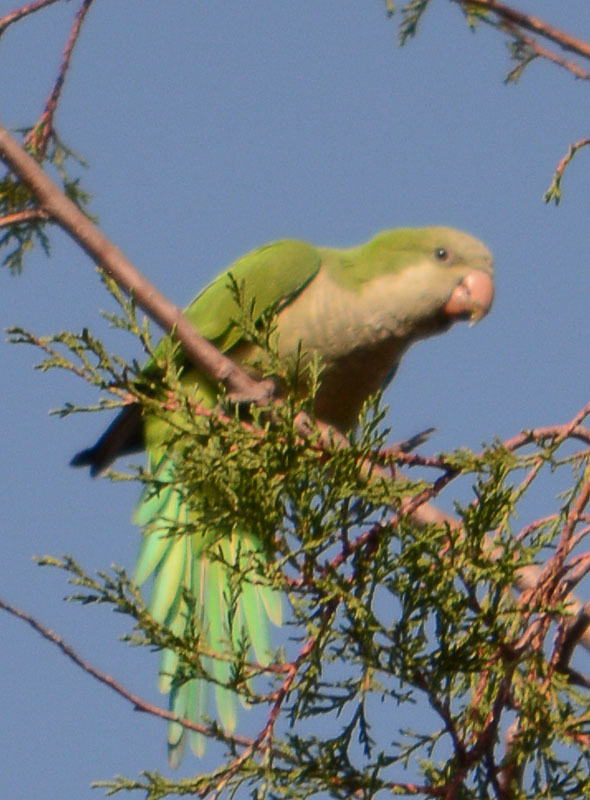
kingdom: Animalia
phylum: Chordata
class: Aves
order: Psittaciformes
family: Psittacidae
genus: Myiopsitta
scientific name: Myiopsitta monachus
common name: Monk parakeet
